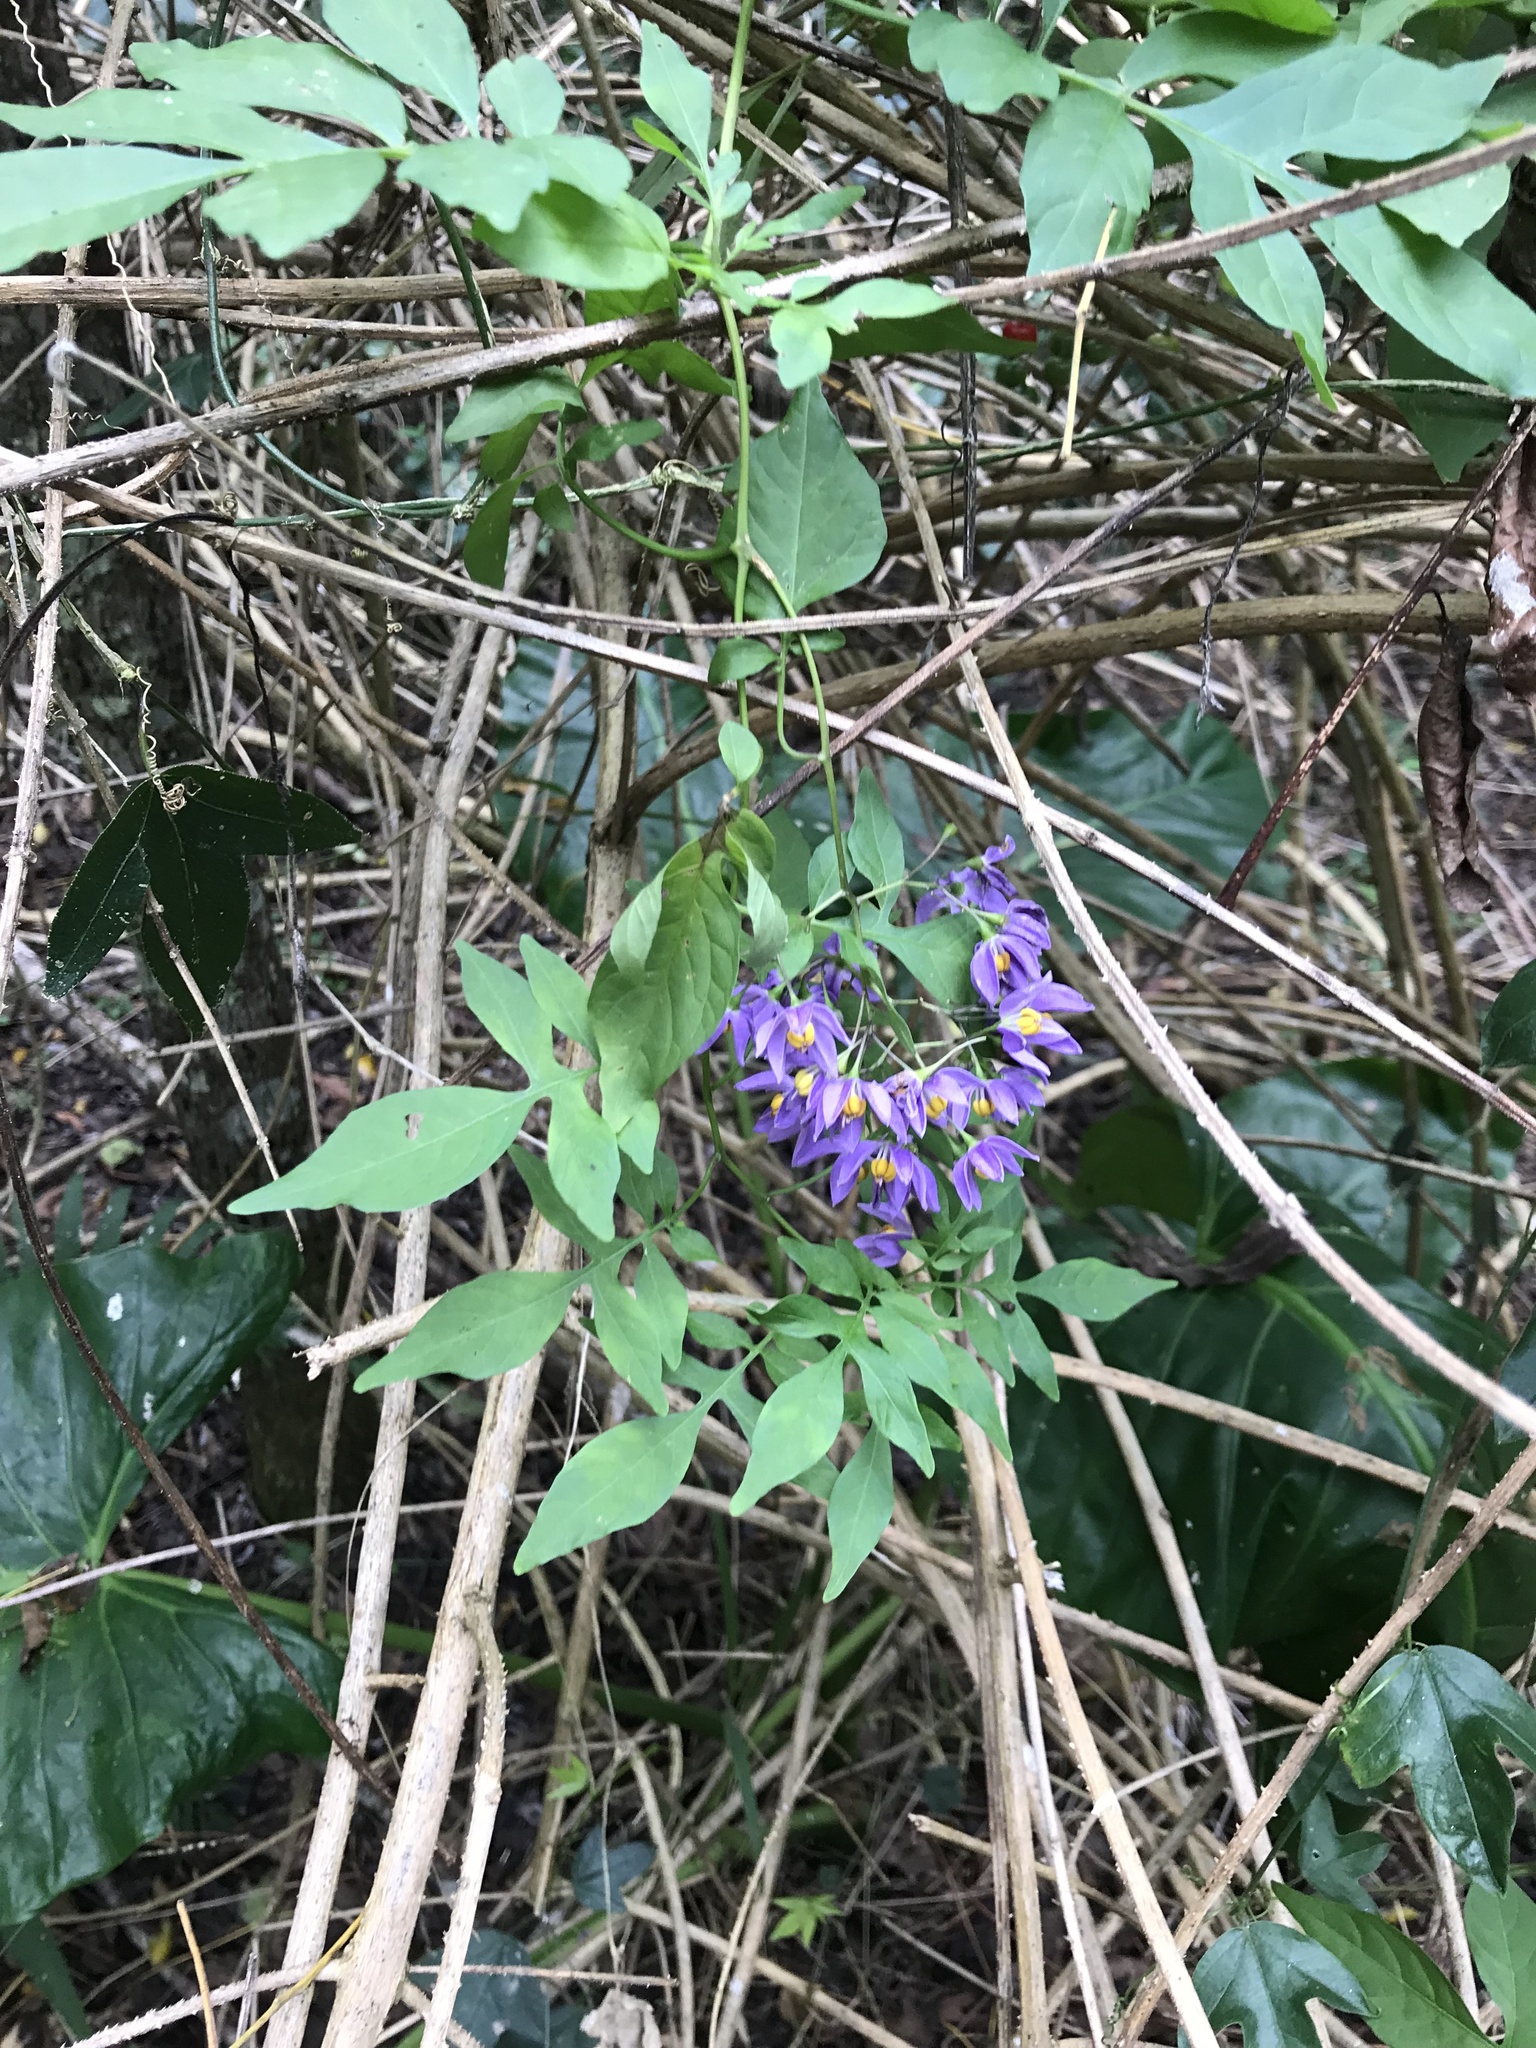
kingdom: Plantae
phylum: Tracheophyta
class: Magnoliopsida
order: Solanales
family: Solanaceae
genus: Solanum
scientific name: Solanum seaforthianum
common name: Brazilian nightshade
